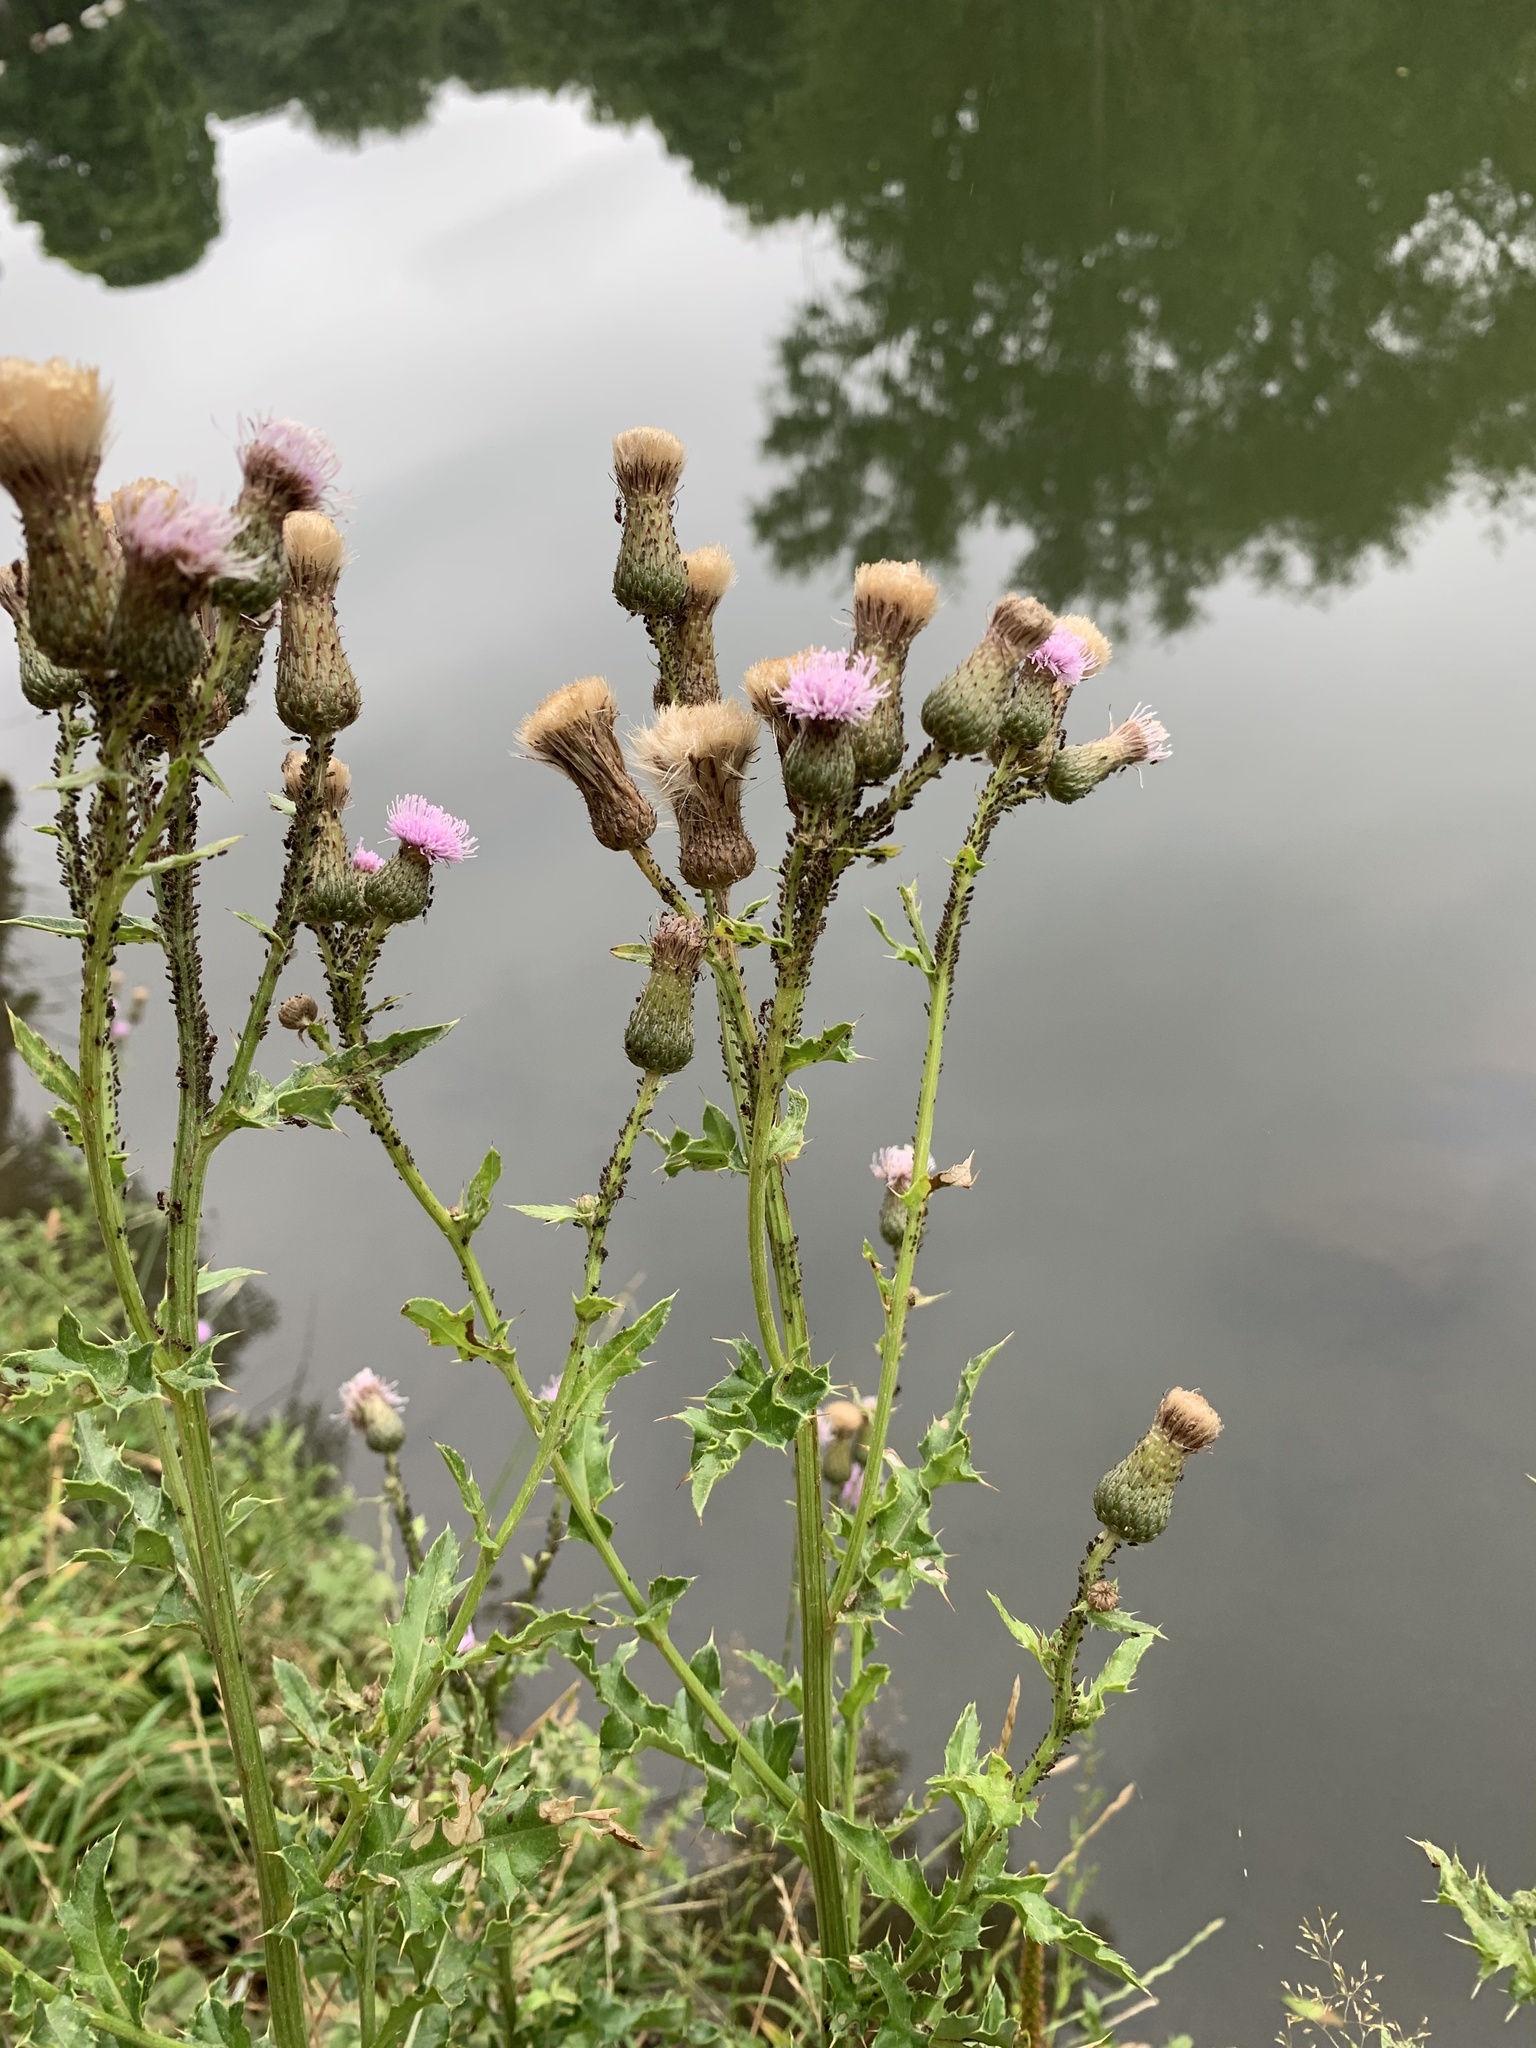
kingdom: Plantae
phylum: Tracheophyta
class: Magnoliopsida
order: Asterales
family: Asteraceae
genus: Cirsium
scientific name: Cirsium arvense
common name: Creeping thistle
